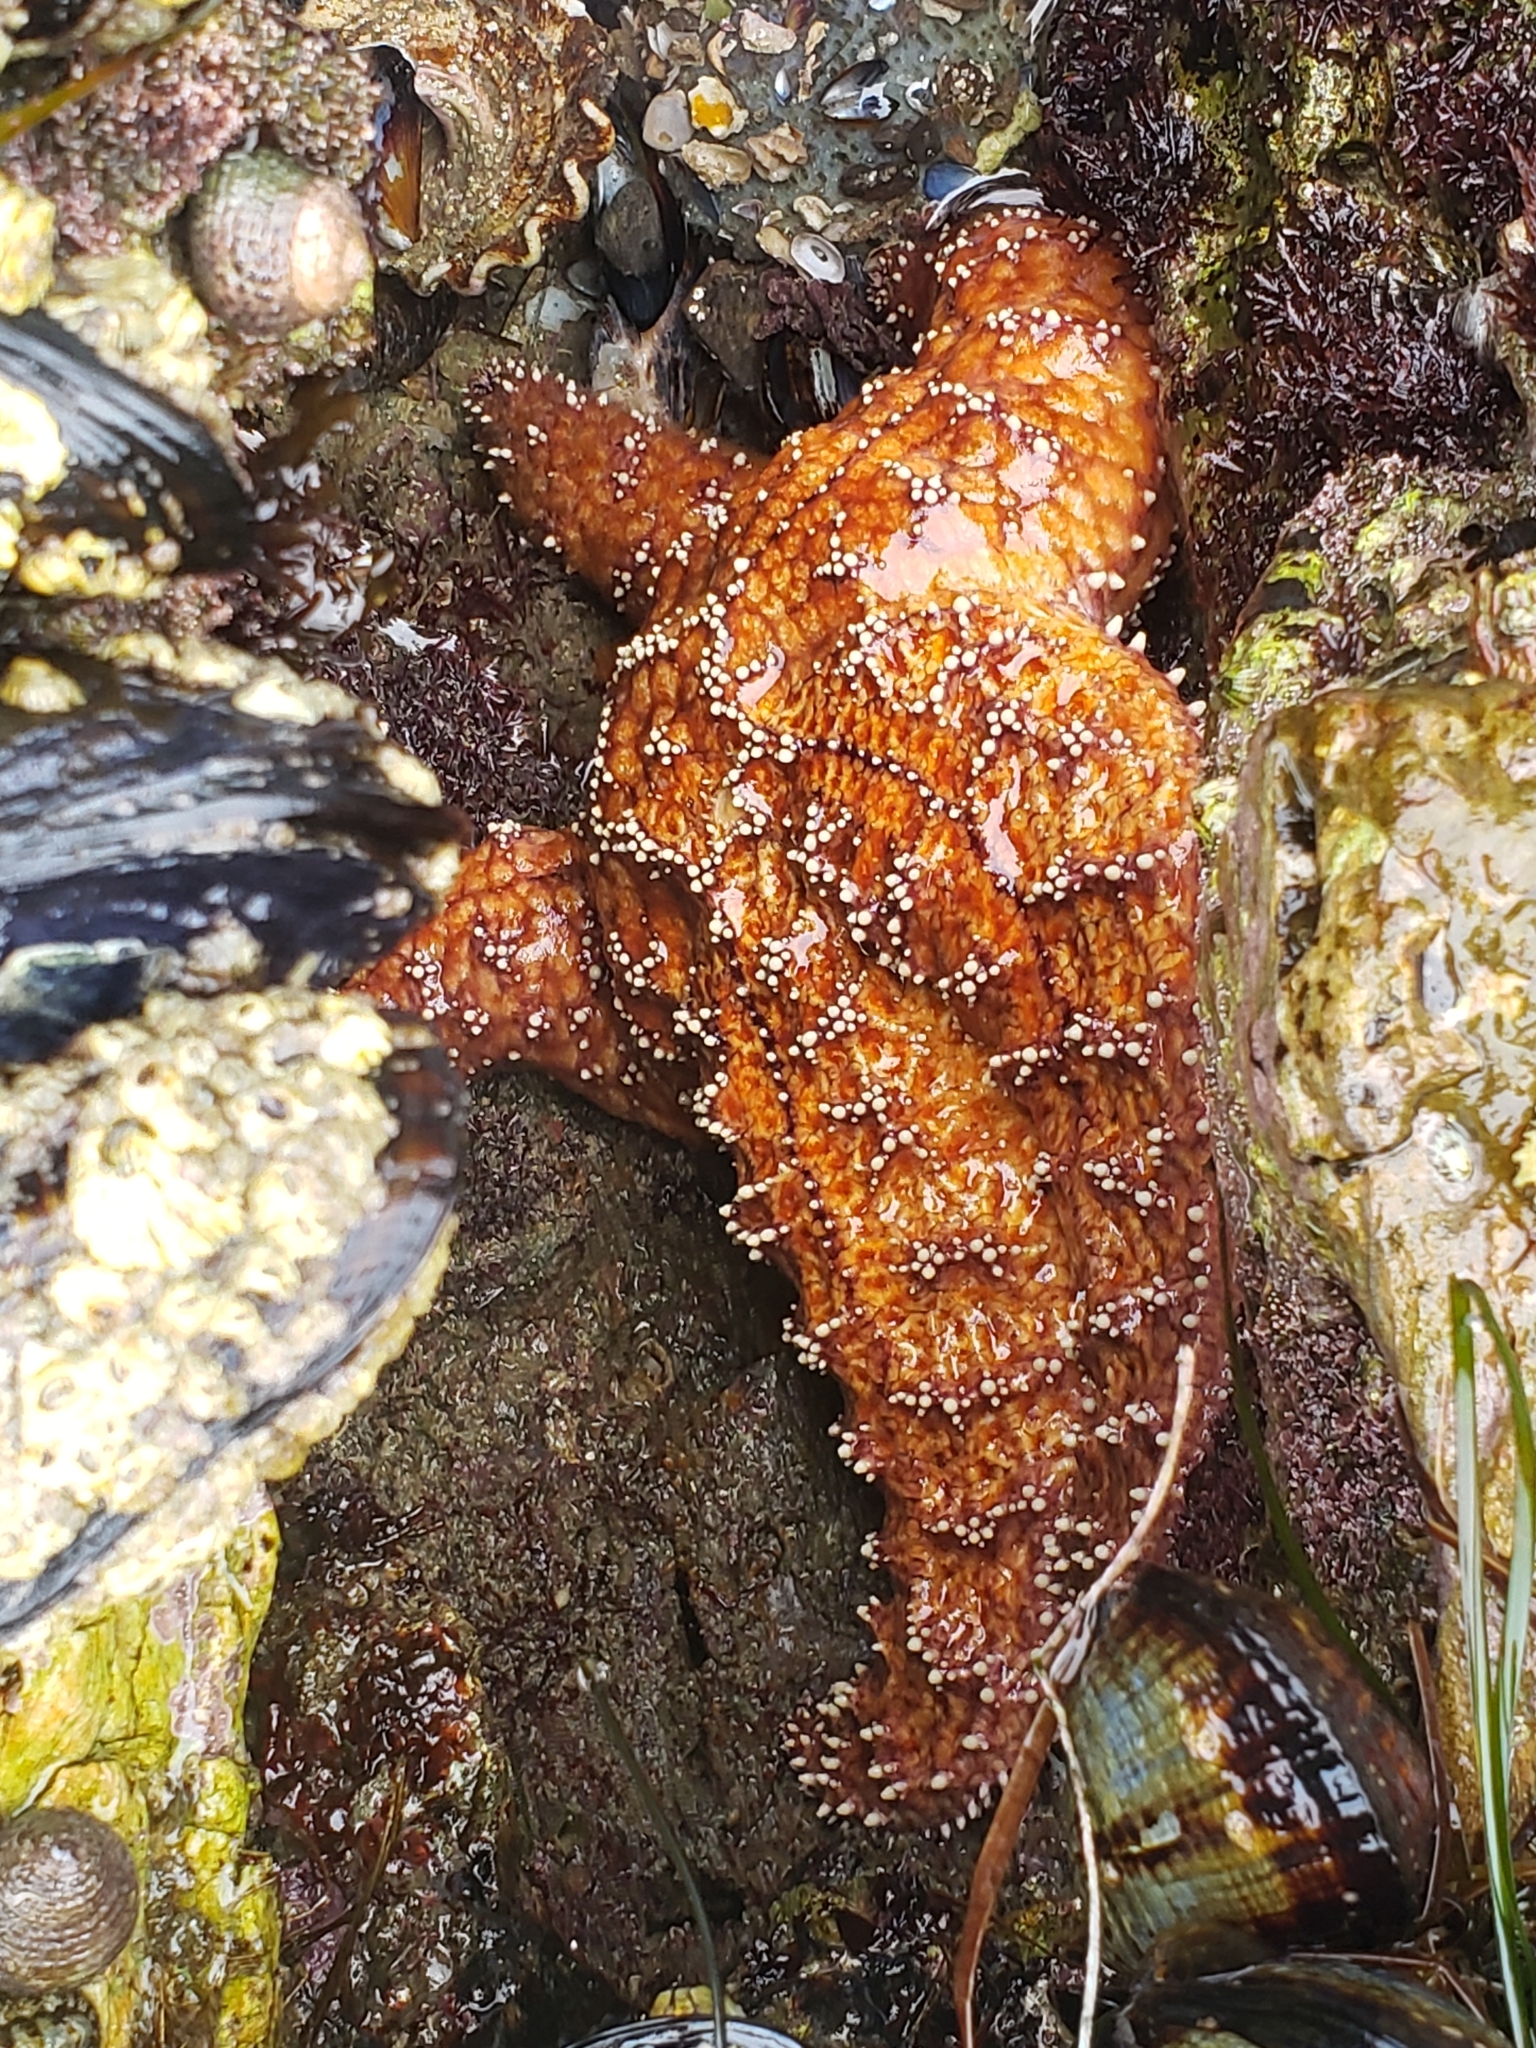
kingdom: Animalia
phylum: Echinodermata
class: Asteroidea
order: Forcipulatida
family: Asteriidae
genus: Pisaster
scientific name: Pisaster ochraceus
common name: Ochre stars
